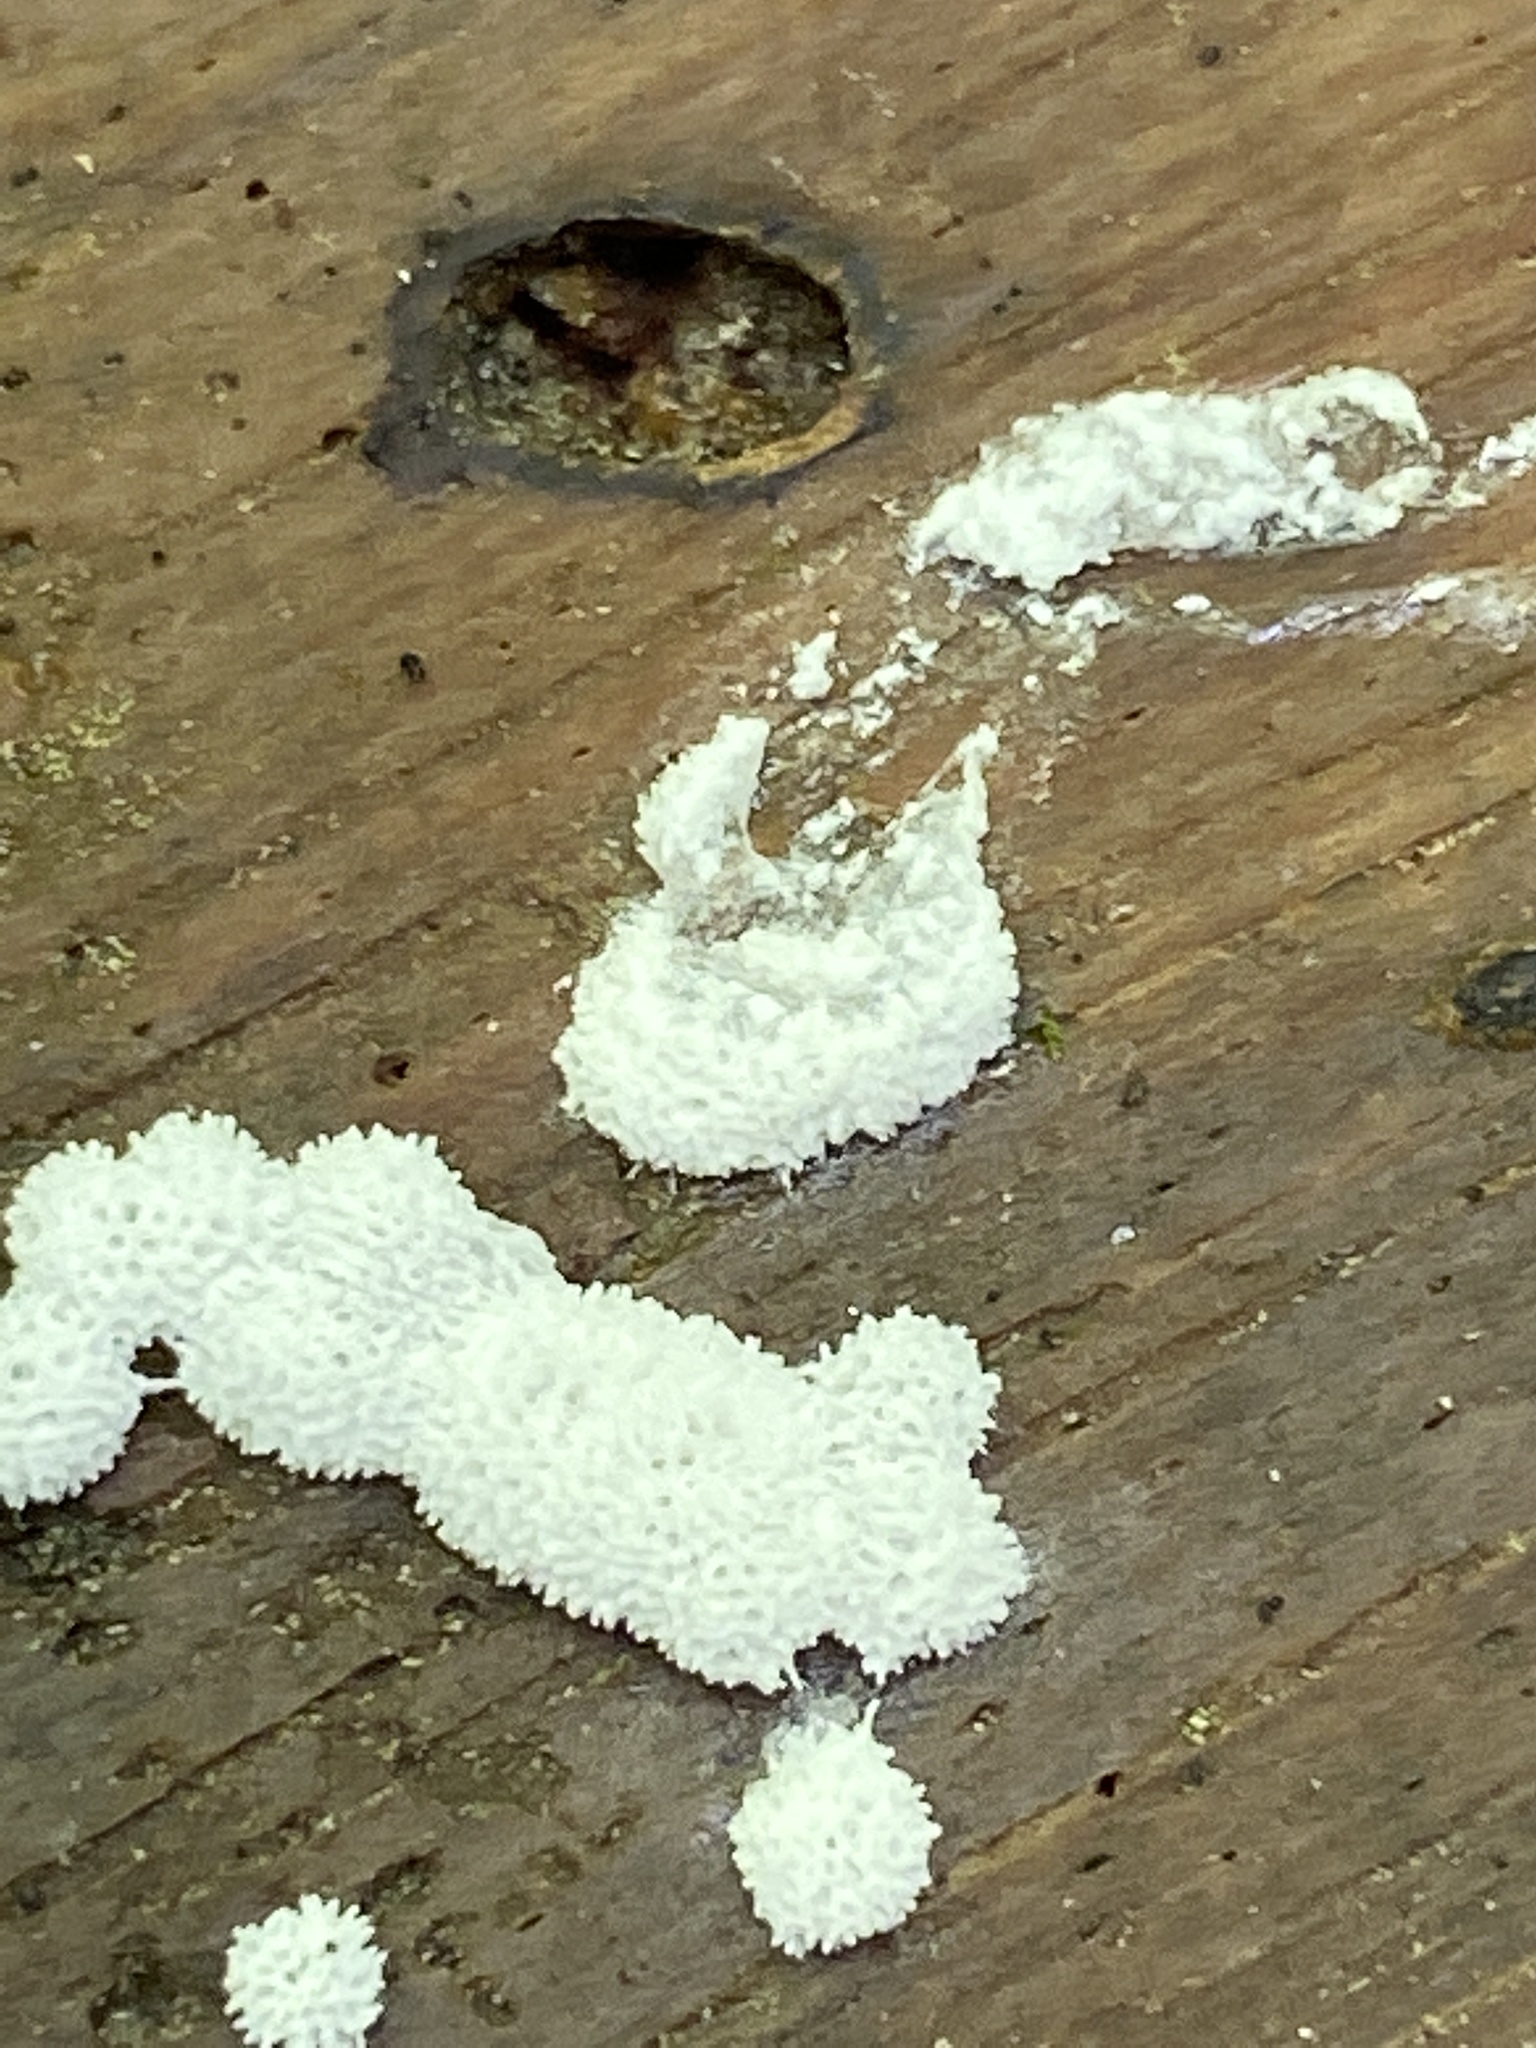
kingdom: Protozoa
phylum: Mycetozoa
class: Protosteliomycetes
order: Ceratiomyxales
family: Ceratiomyxaceae
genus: Ceratiomyxa
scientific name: Ceratiomyxa fruticulosa
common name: Honeycomb coral slime mold
